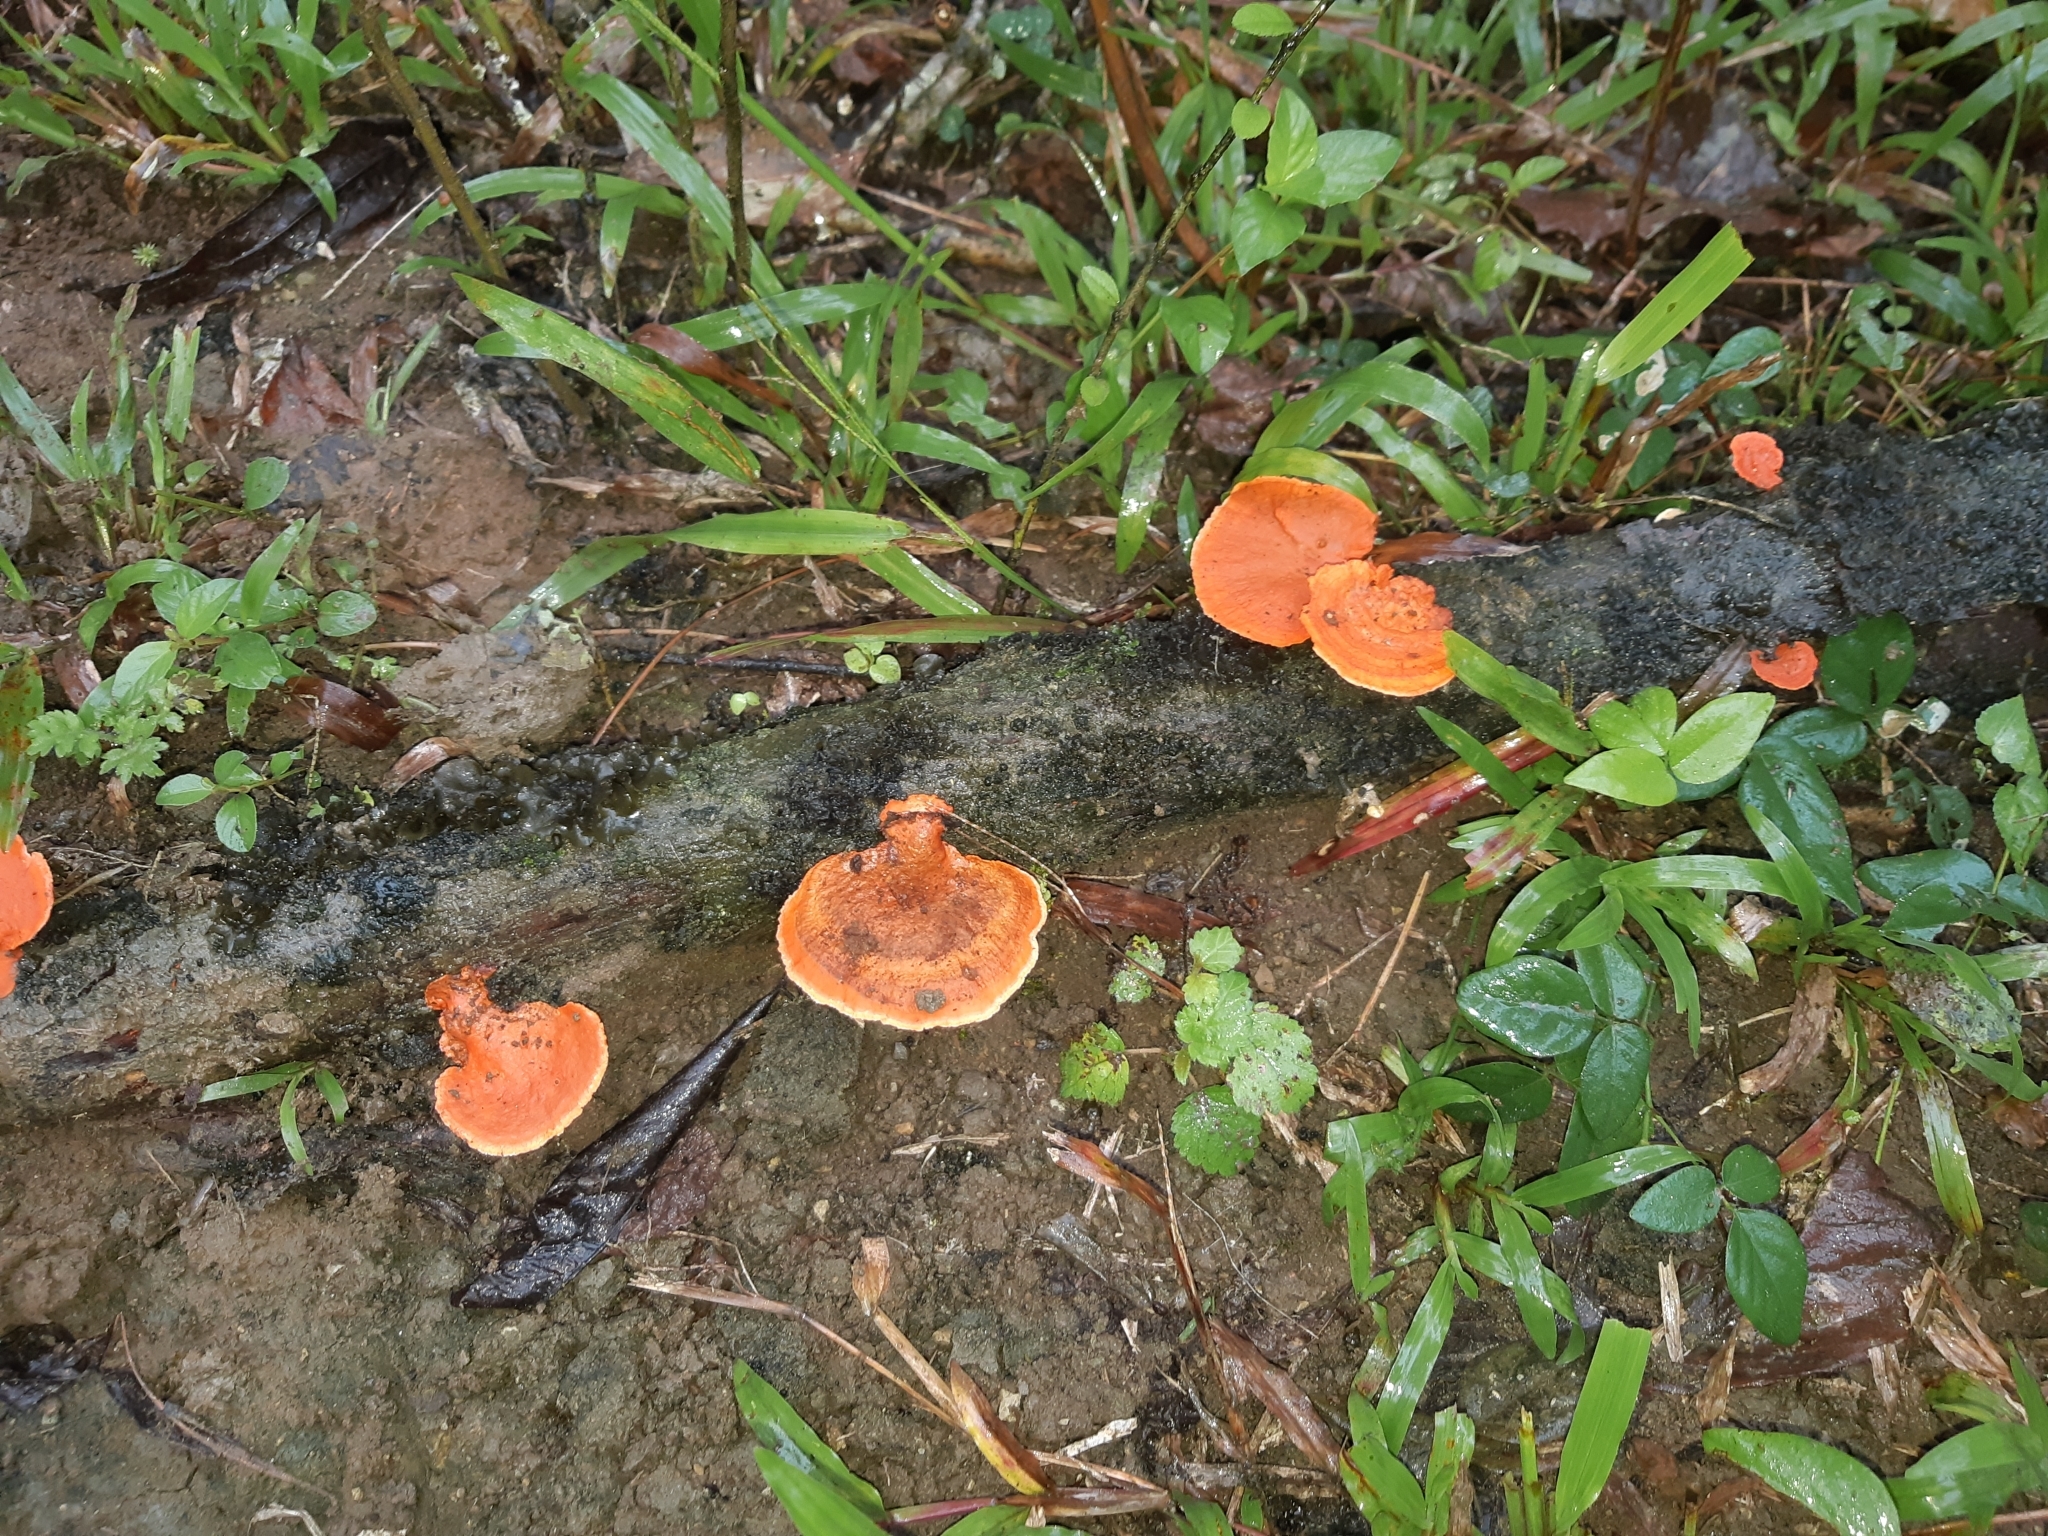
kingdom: Fungi
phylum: Basidiomycota
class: Agaricomycetes
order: Polyporales
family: Polyporaceae
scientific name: Polyporaceae
